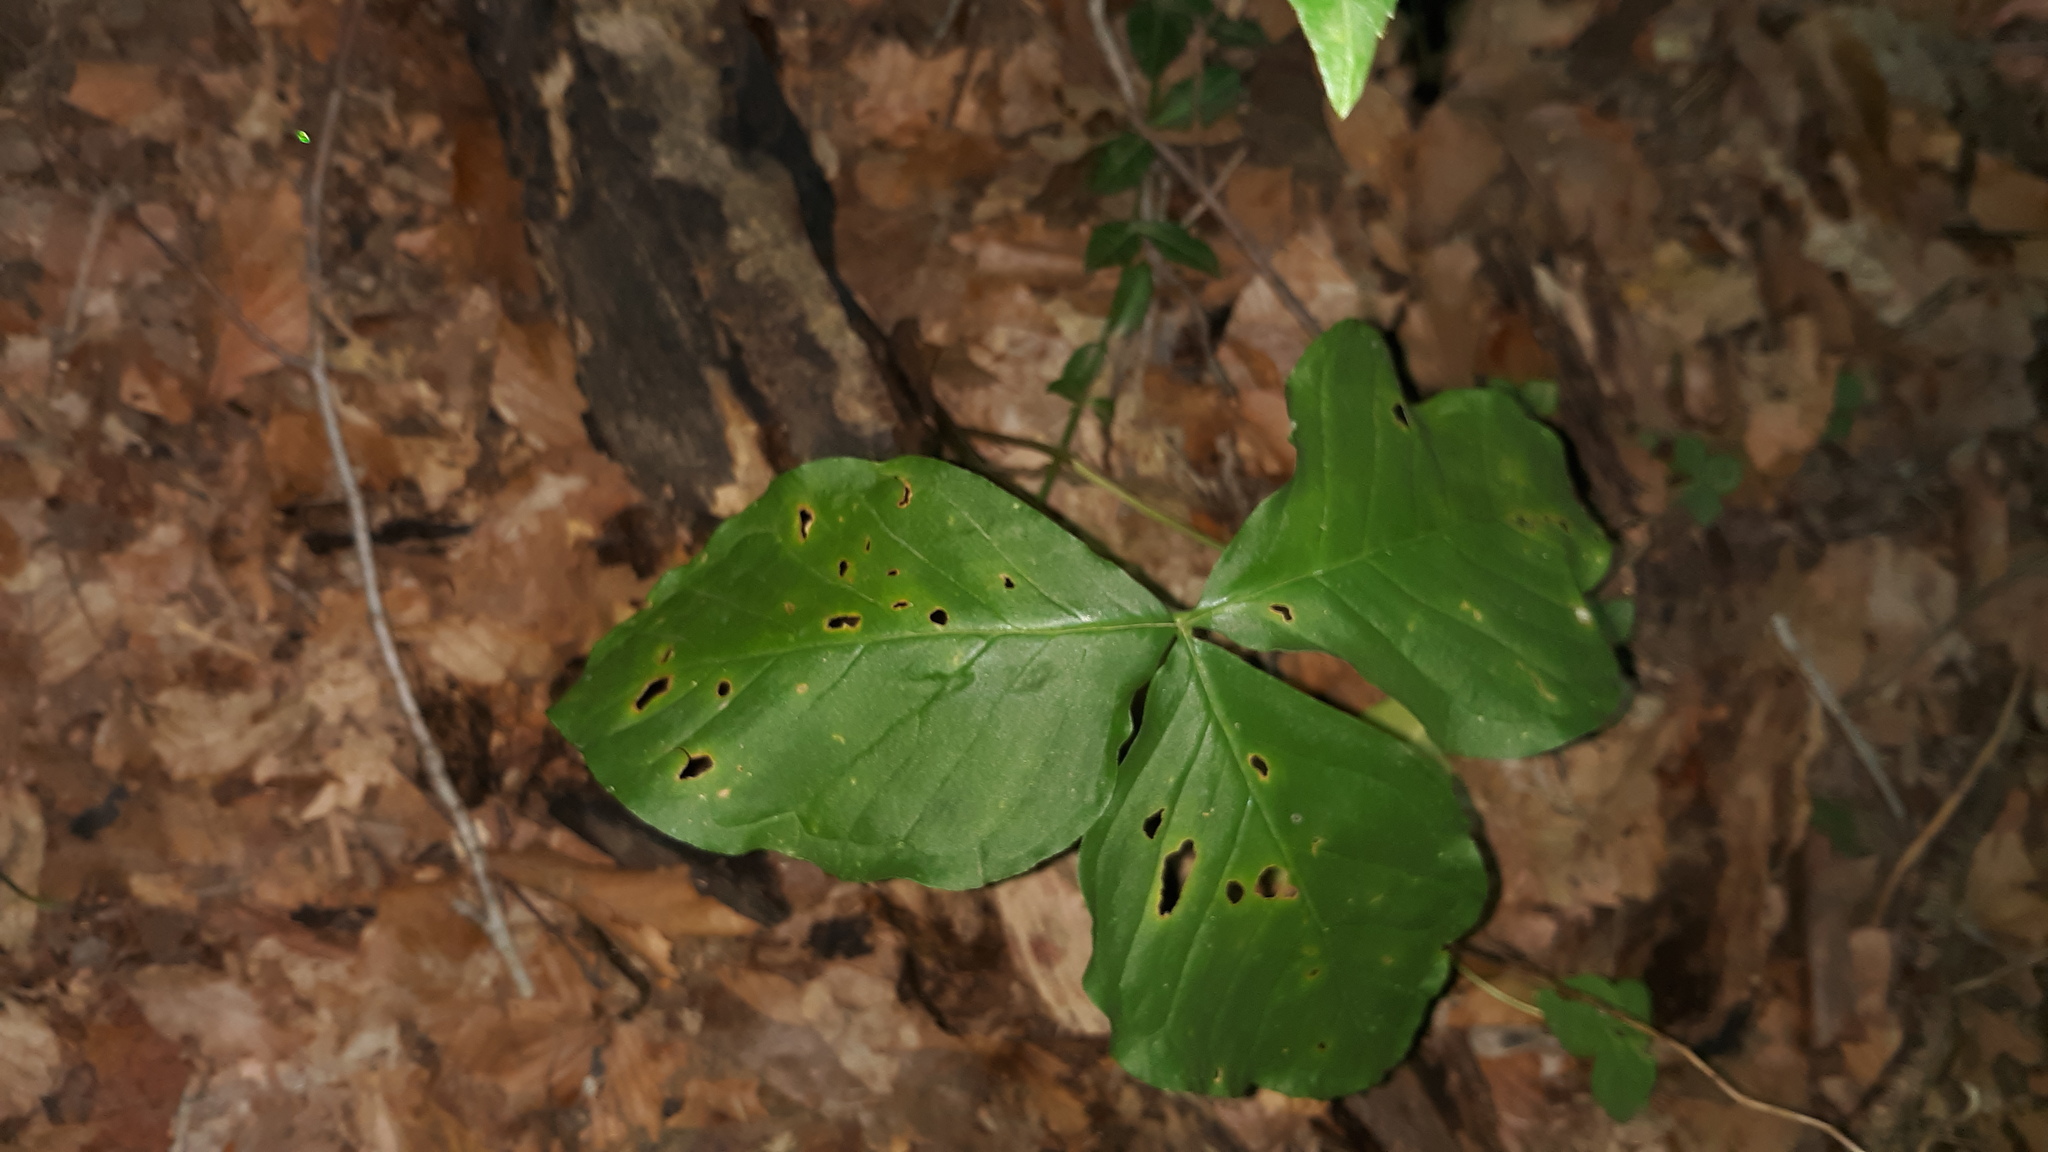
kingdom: Plantae
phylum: Tracheophyta
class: Liliopsida
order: Alismatales
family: Araceae
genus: Arisaema
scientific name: Arisaema triphyllum
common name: Jack-in-the-pulpit
